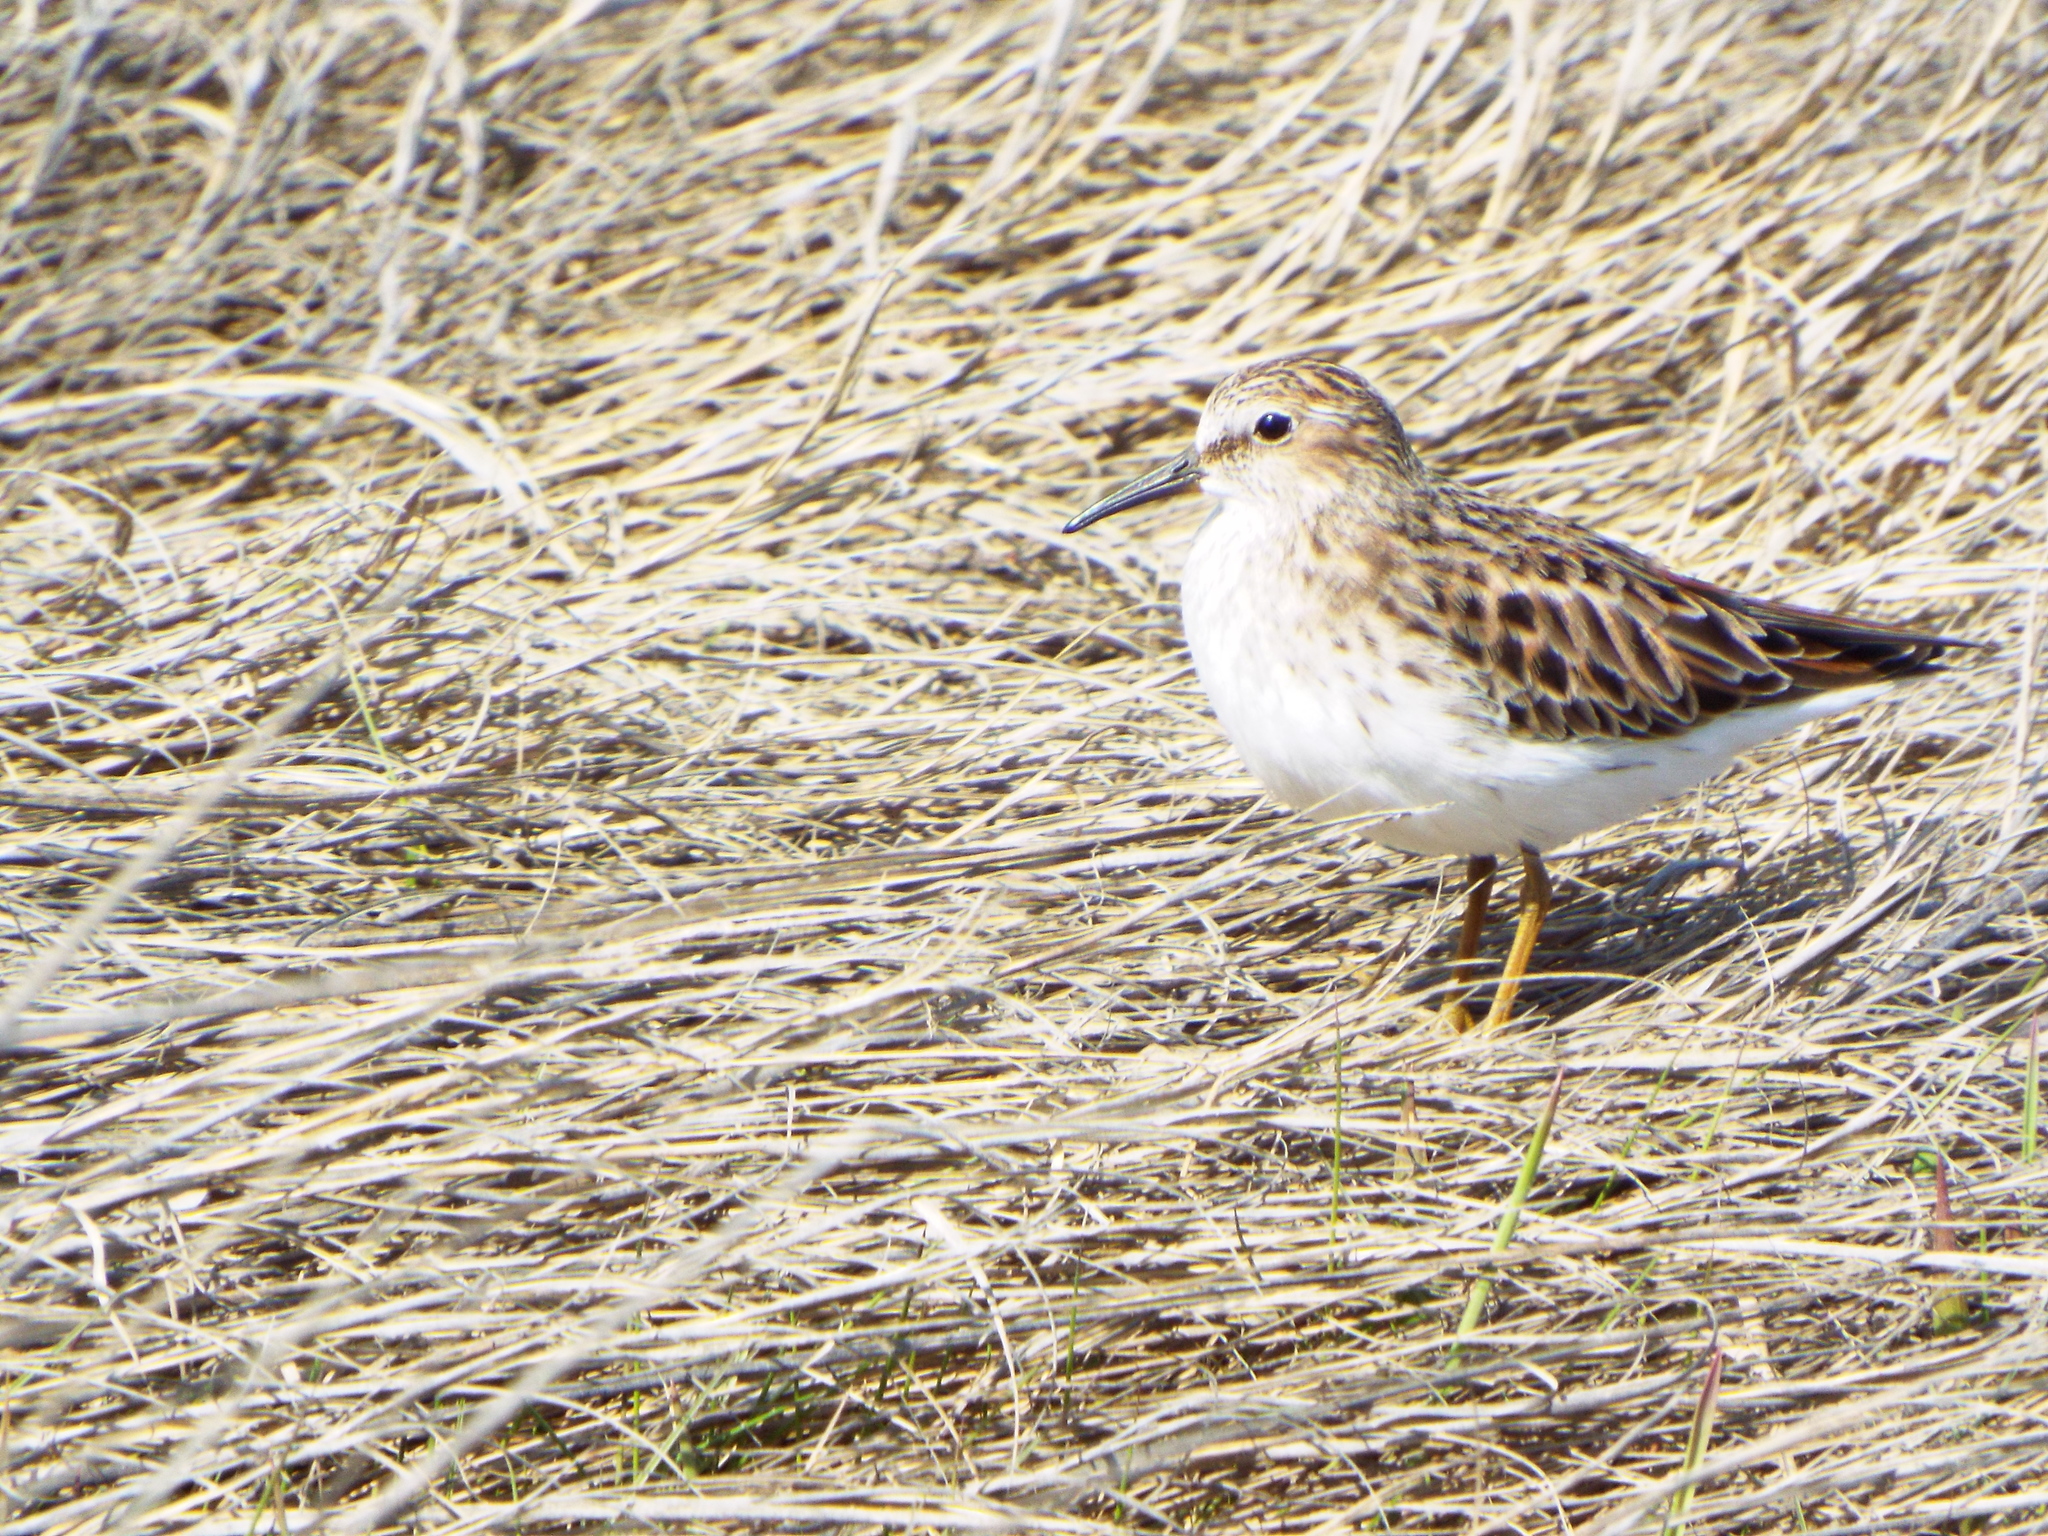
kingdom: Animalia
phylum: Chordata
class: Aves
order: Charadriiformes
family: Scolopacidae
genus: Calidris
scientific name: Calidris minutilla
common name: Least sandpiper
